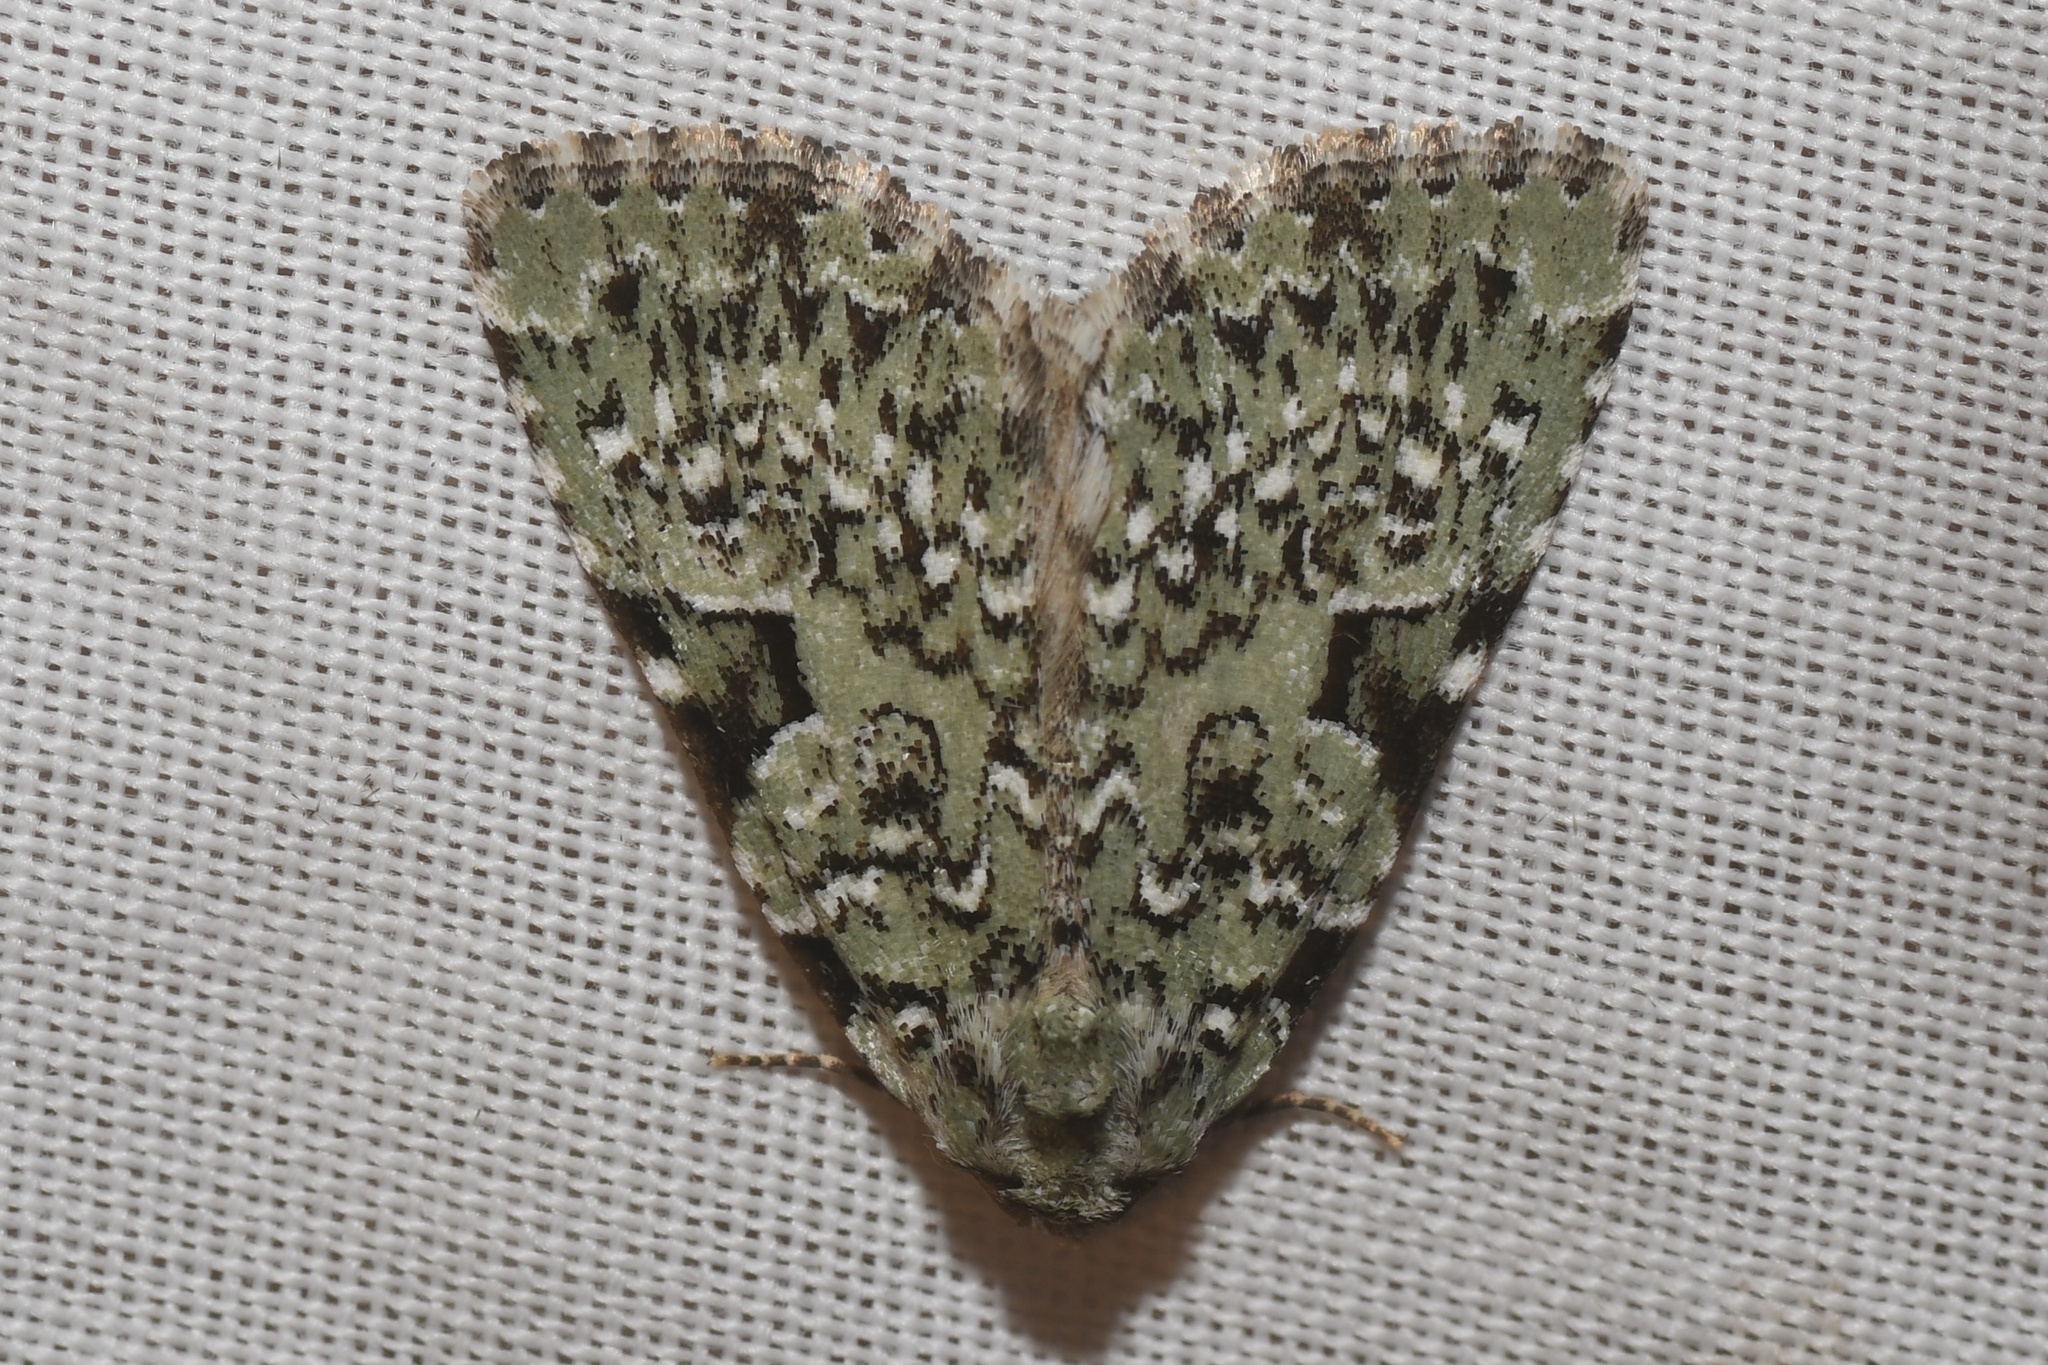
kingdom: Animalia
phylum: Arthropoda
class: Insecta
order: Lepidoptera
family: Noctuidae
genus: Leuconycta
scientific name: Leuconycta diphteroides
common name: Green leuconycta moth
